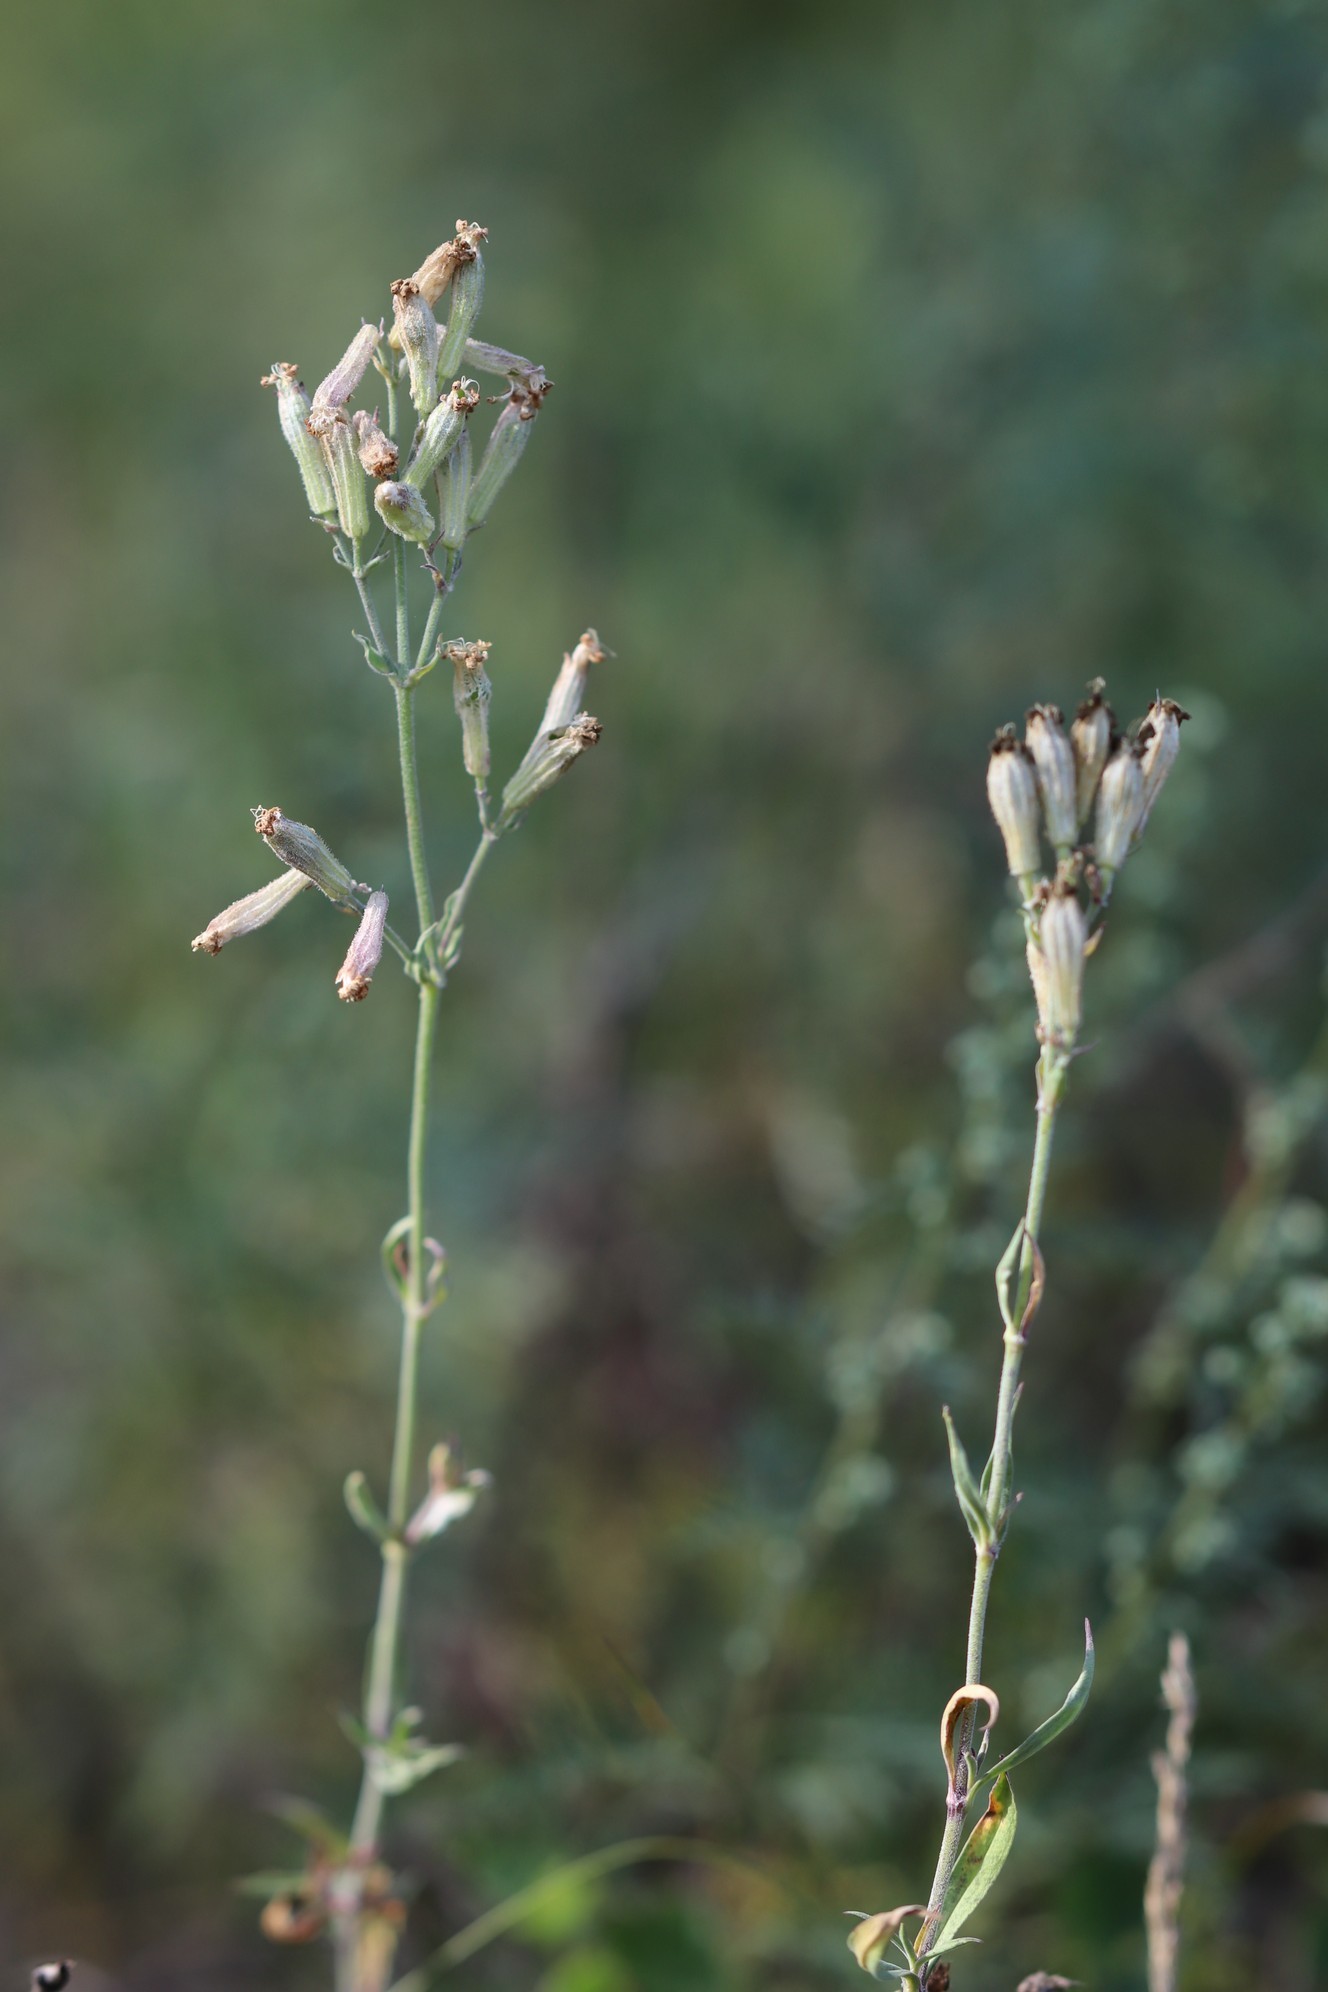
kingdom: Plantae
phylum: Tracheophyta
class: Magnoliopsida
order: Caryophyllales
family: Caryophyllaceae
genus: Silene
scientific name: Silene amoena
